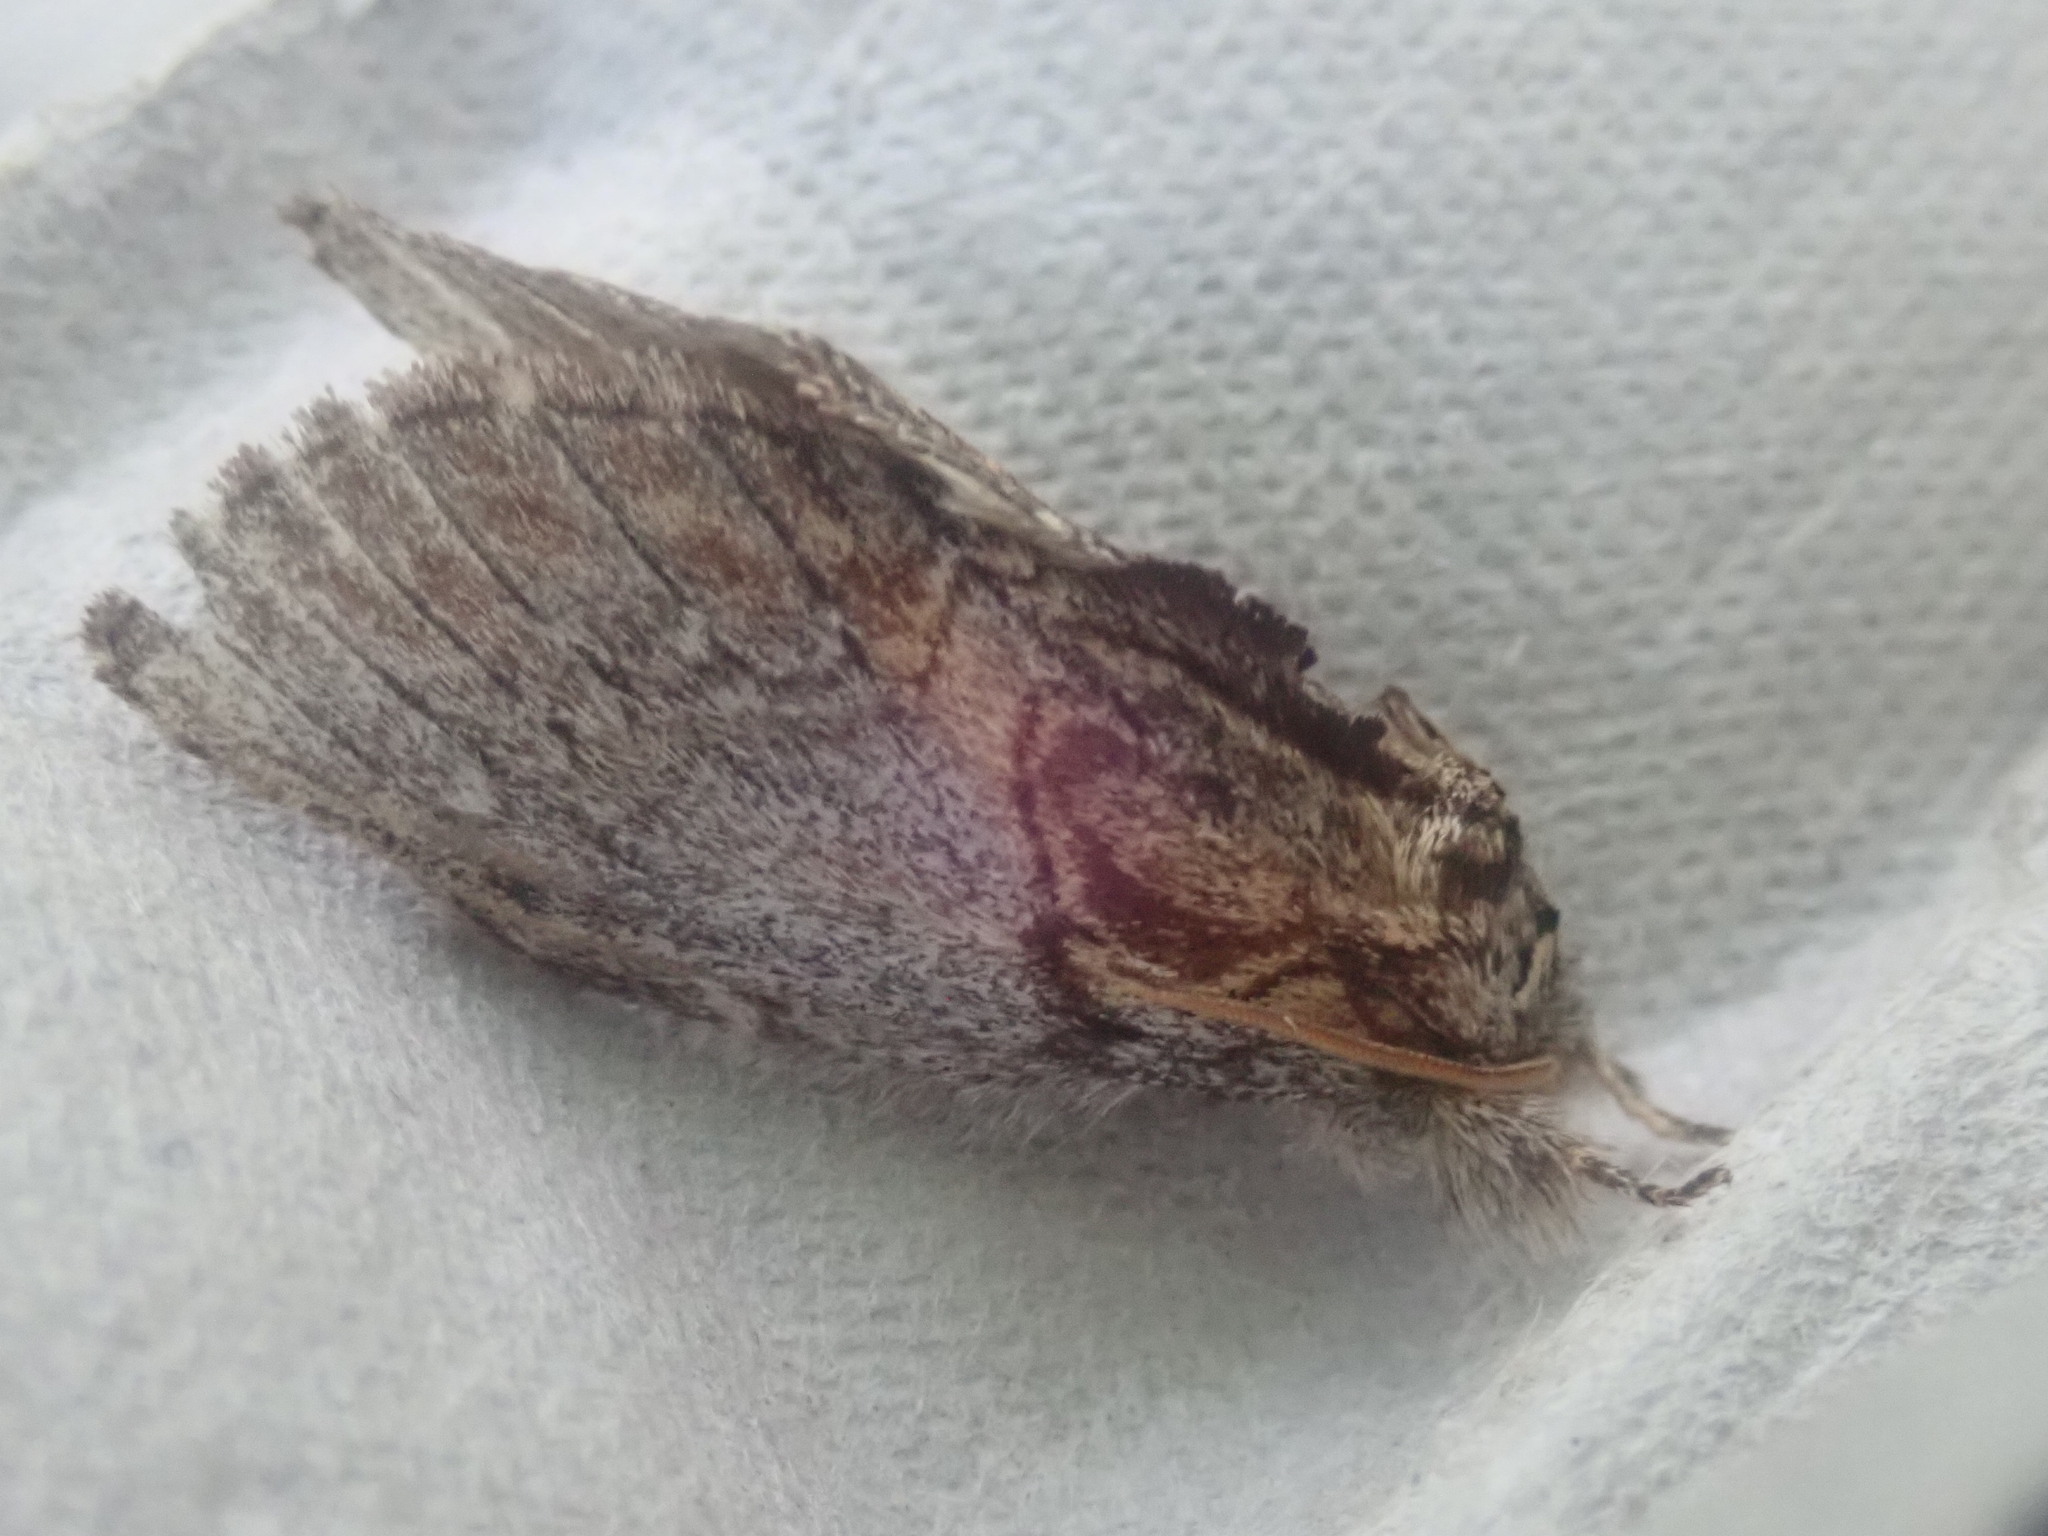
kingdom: Animalia
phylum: Arthropoda
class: Insecta
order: Lepidoptera
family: Notodontidae
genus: Peridea
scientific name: Peridea basitriens
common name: Oval-based prominent
